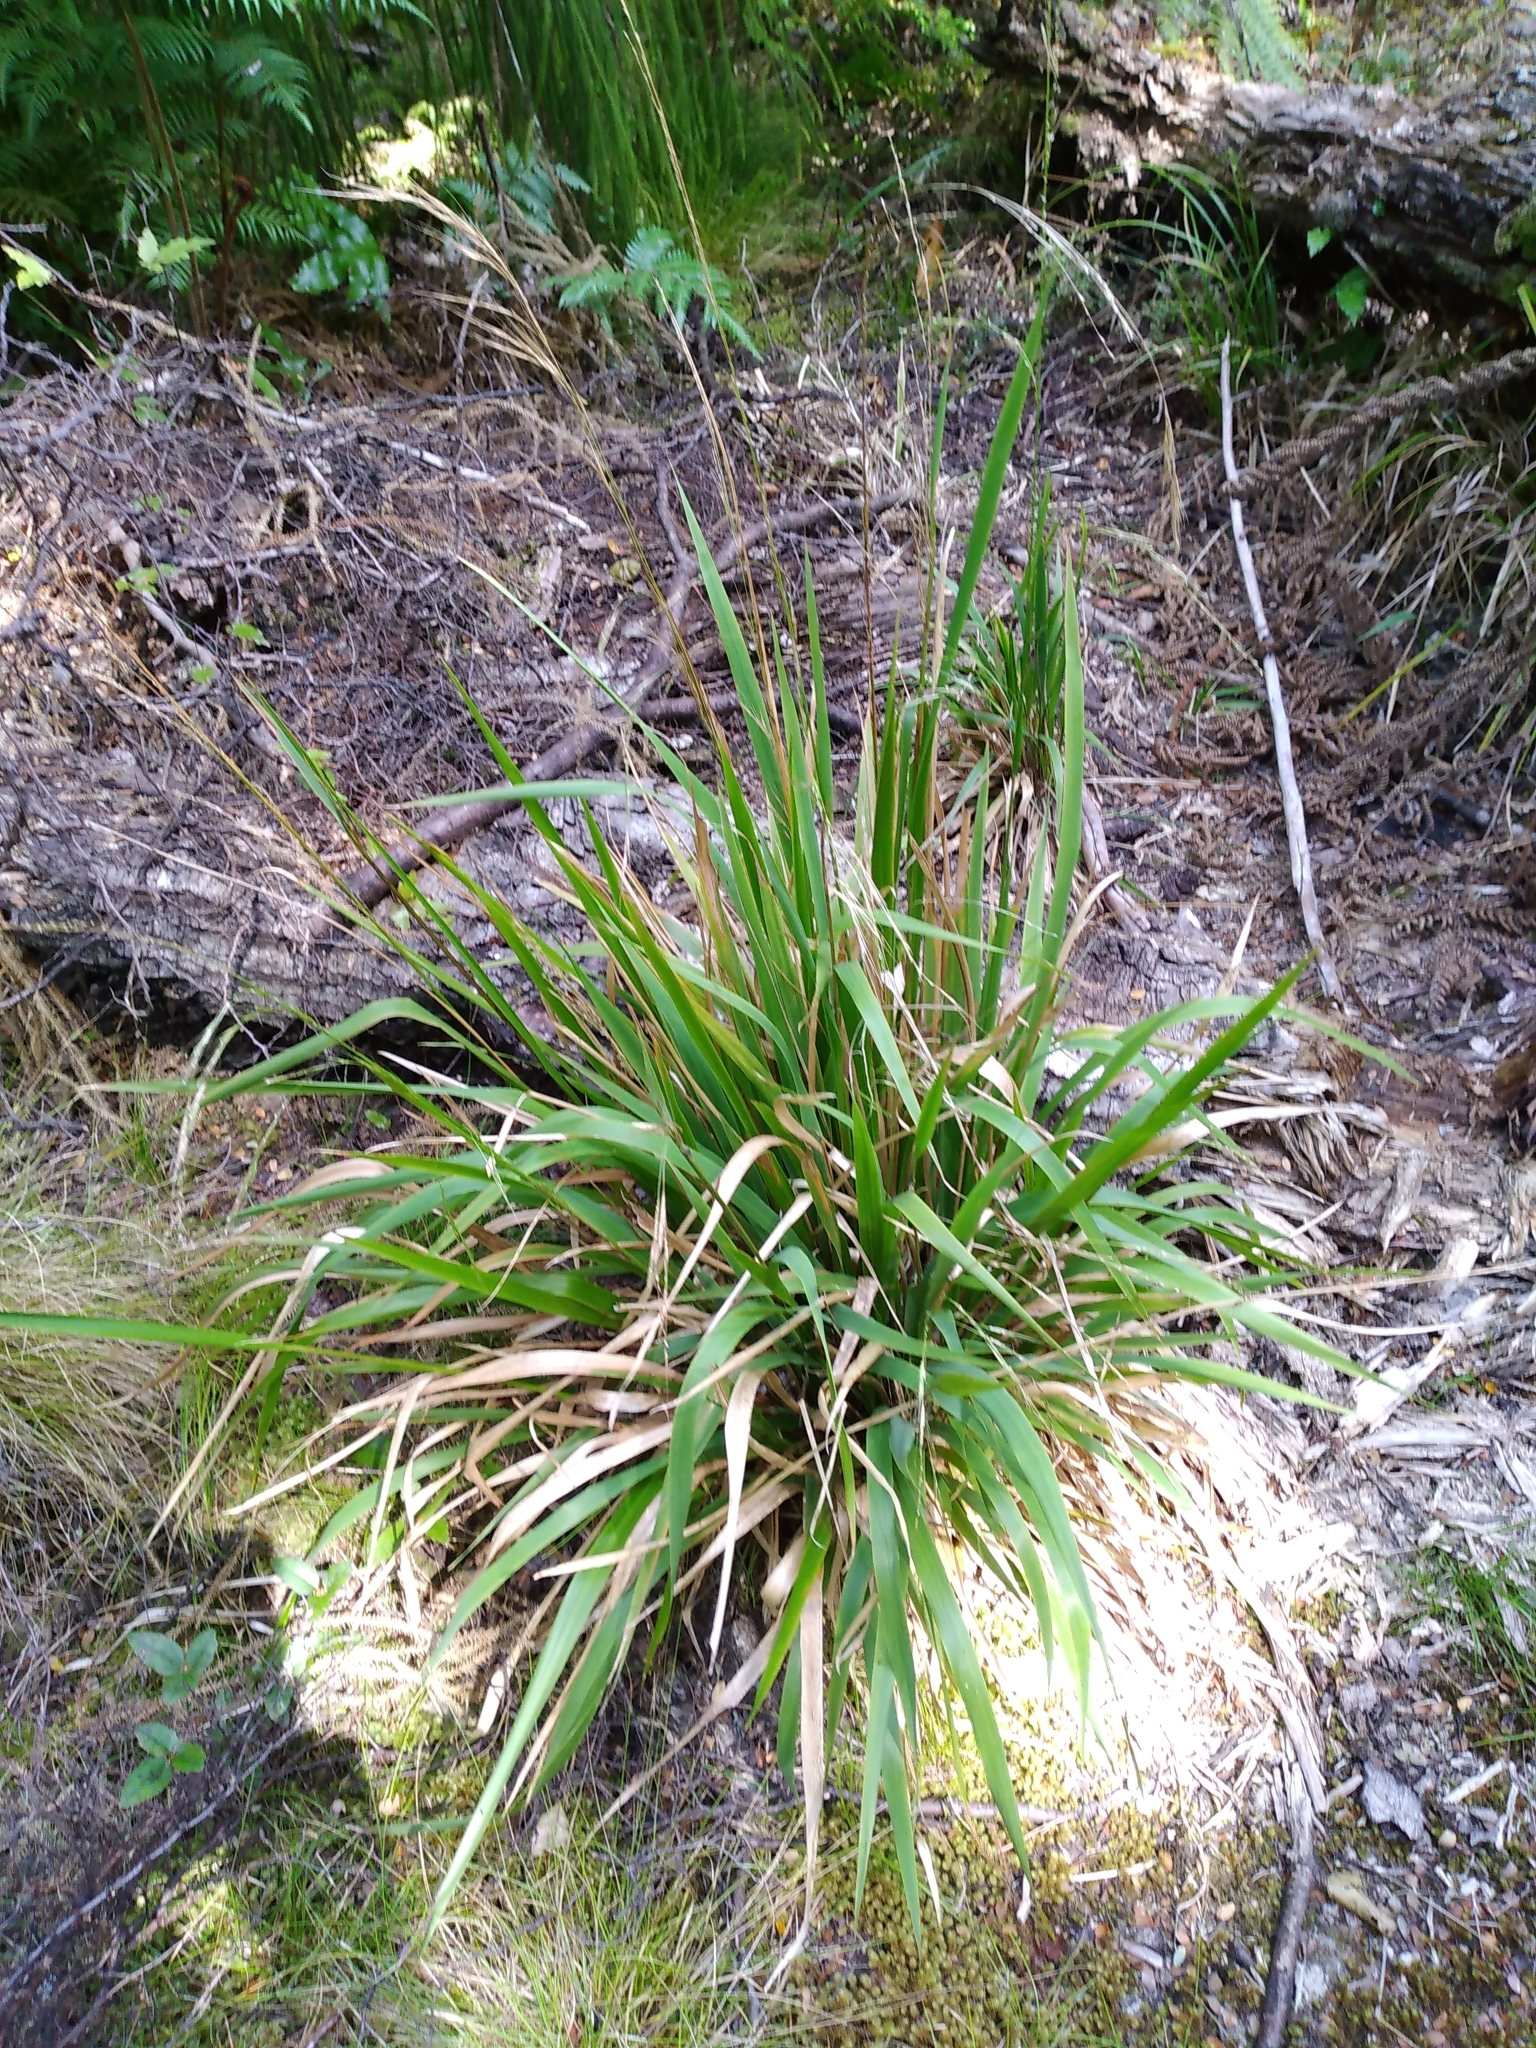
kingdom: Plantae
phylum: Tracheophyta
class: Liliopsida
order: Poales
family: Poaceae
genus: Ehrharta
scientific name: Ehrharta diplax
